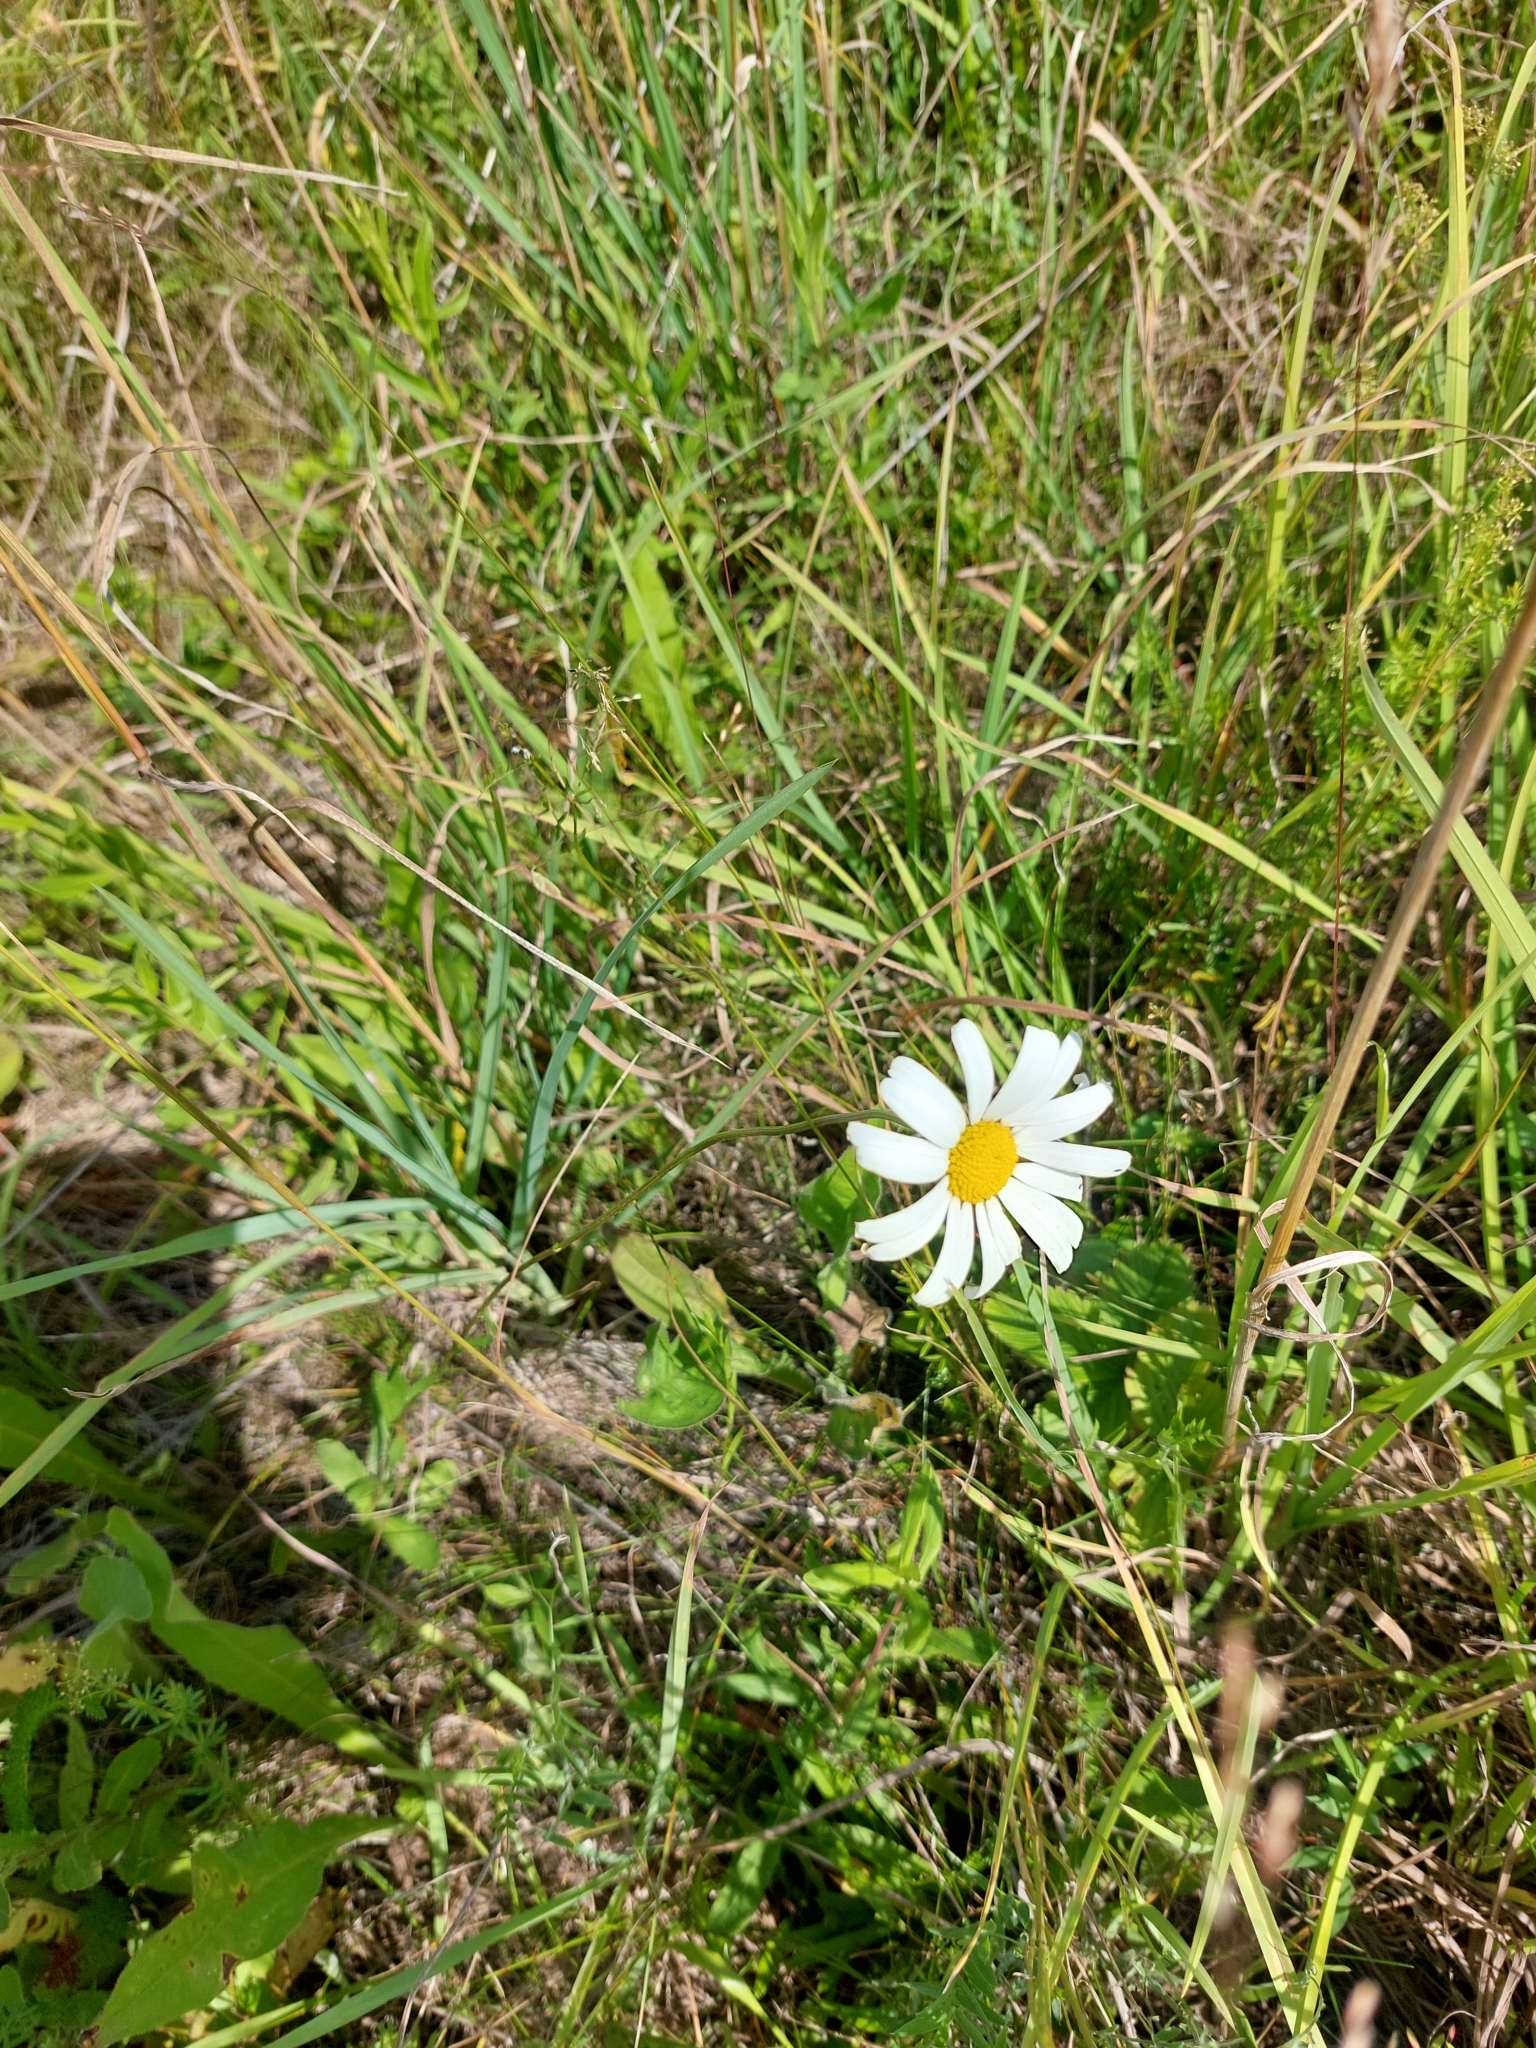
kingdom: Plantae
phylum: Tracheophyta
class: Magnoliopsida
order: Asterales
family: Asteraceae
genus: Leucanthemum
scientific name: Leucanthemum vulgare
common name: Oxeye daisy
